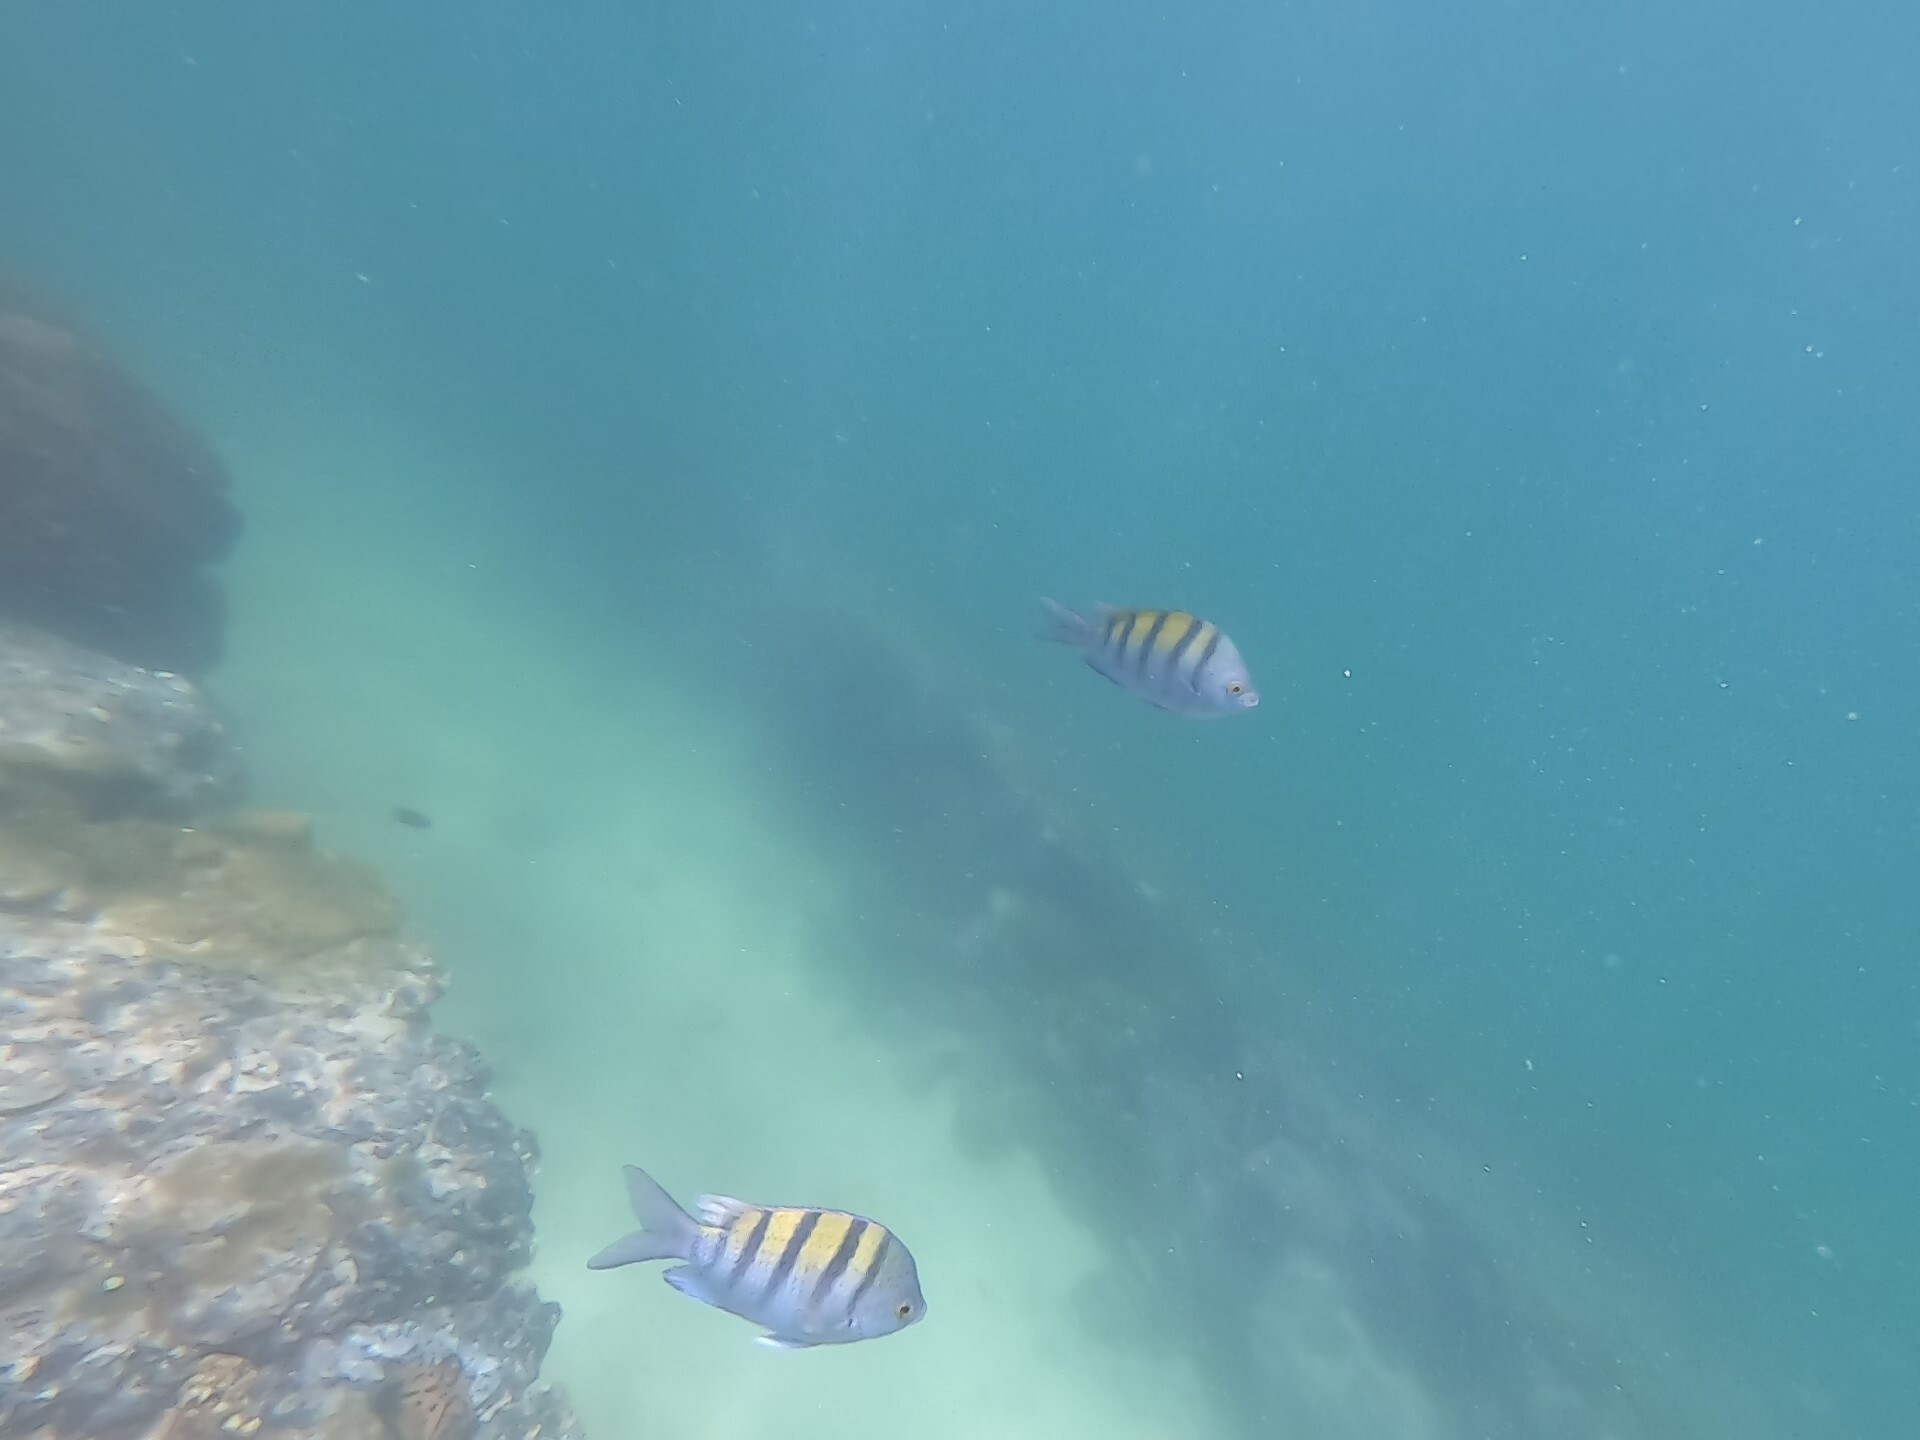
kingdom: Animalia
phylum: Chordata
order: Perciformes
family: Pomacentridae
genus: Abudefduf
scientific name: Abudefduf troschelii
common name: Panamic sergeant major
